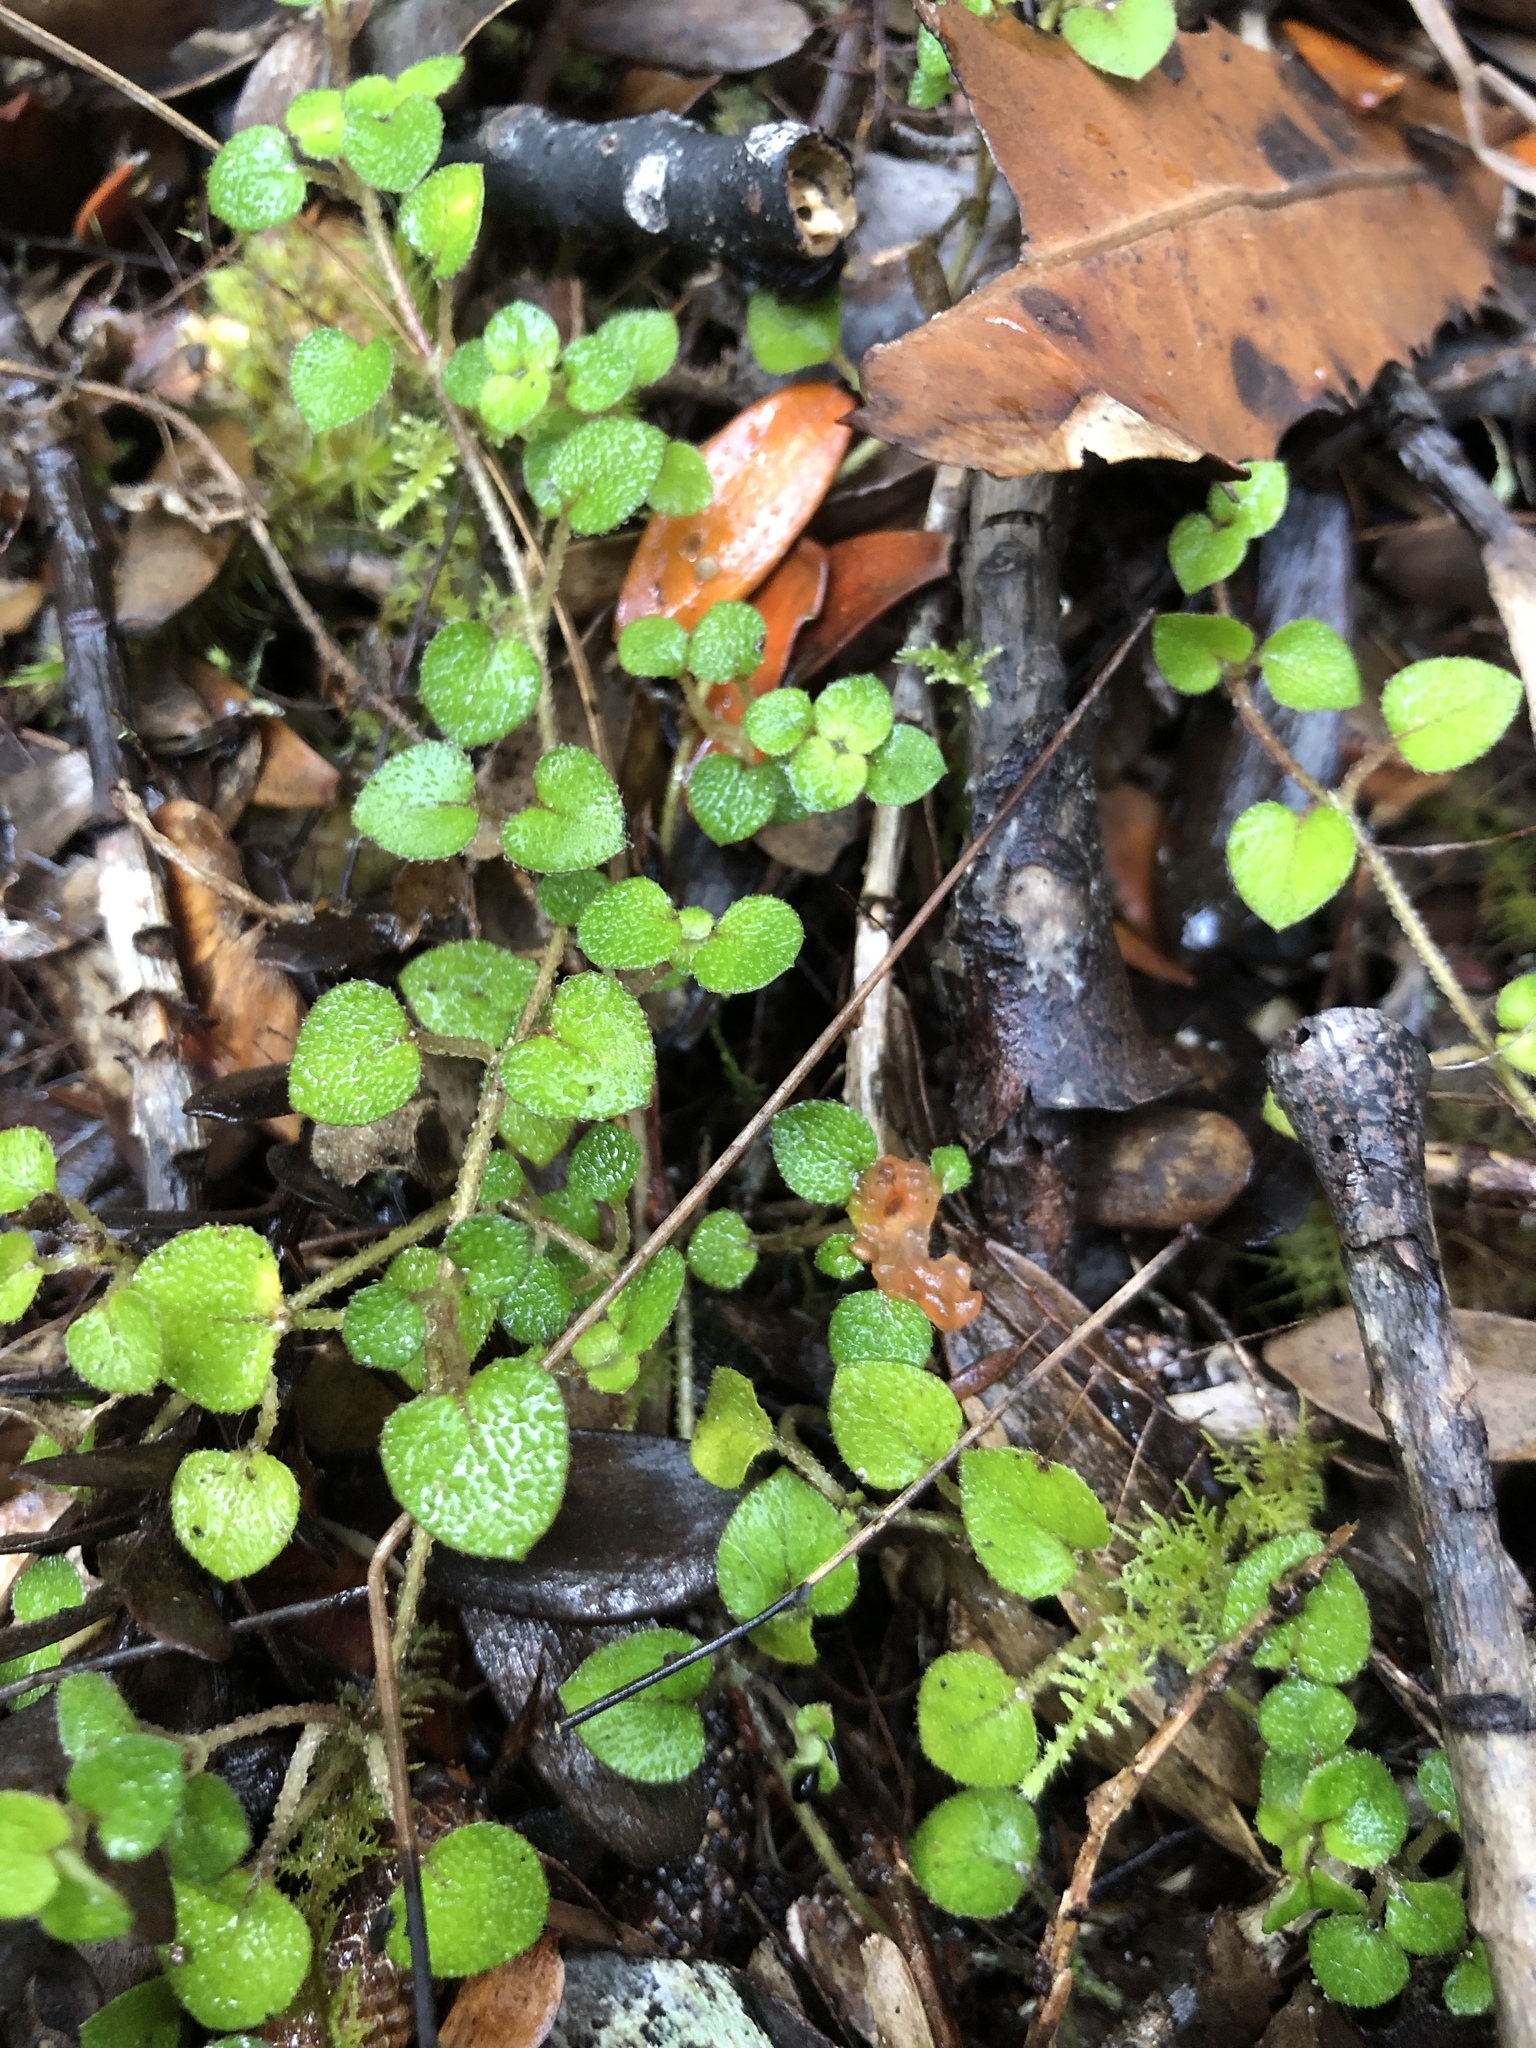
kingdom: Plantae
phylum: Tracheophyta
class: Magnoliopsida
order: Gentianales
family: Rubiaceae
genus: Nertera
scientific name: Nertera dichondrifolia
